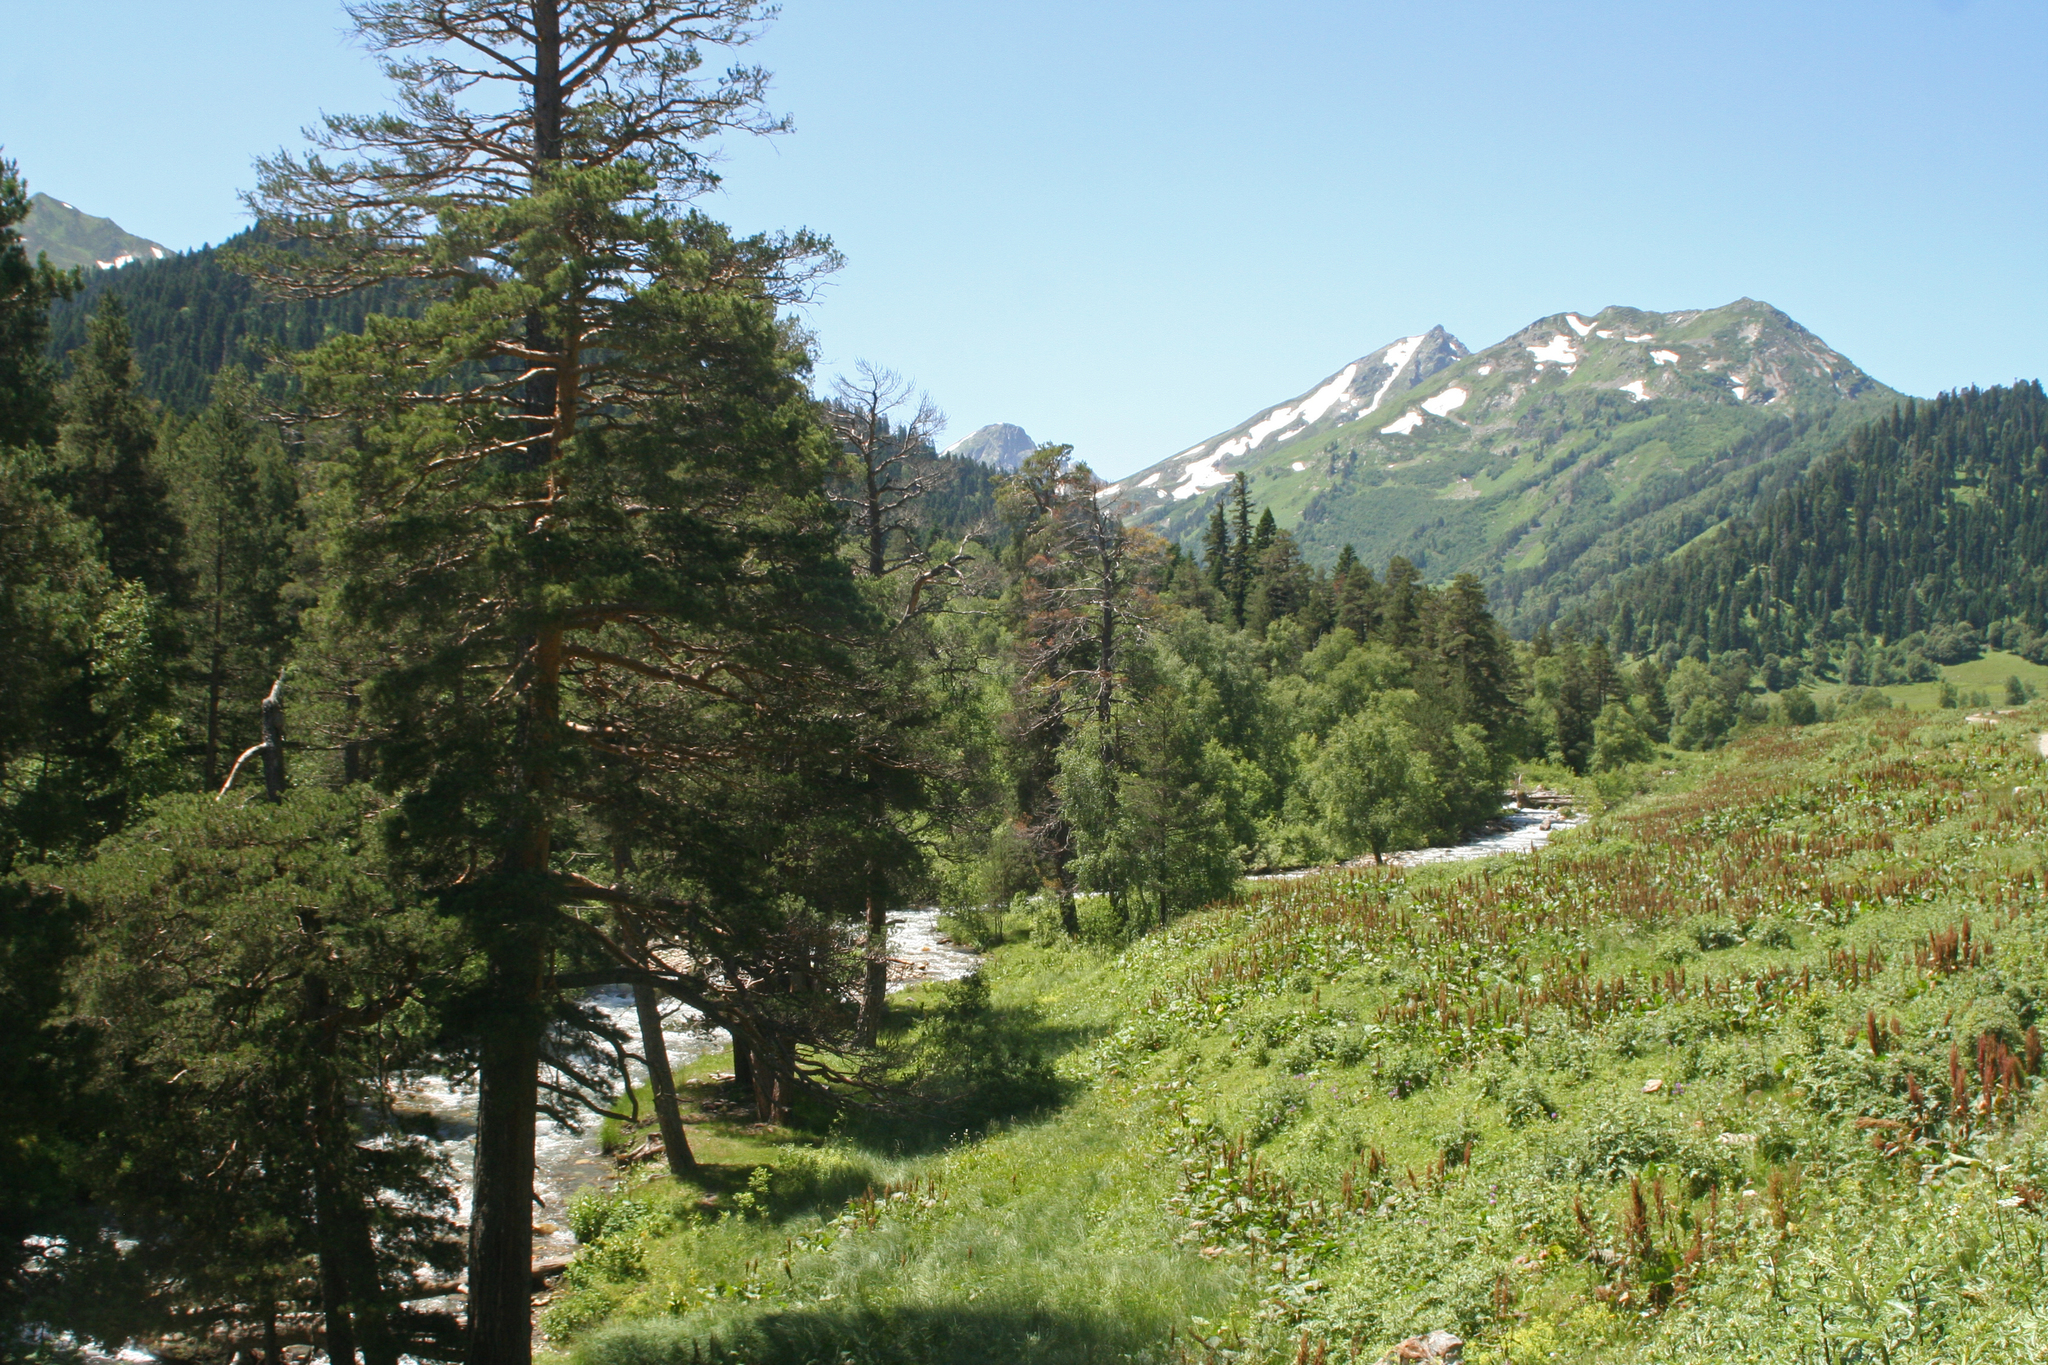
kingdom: Plantae
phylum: Tracheophyta
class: Pinopsida
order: Pinales
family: Pinaceae
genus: Pinus
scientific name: Pinus sylvestris
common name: Scots pine
